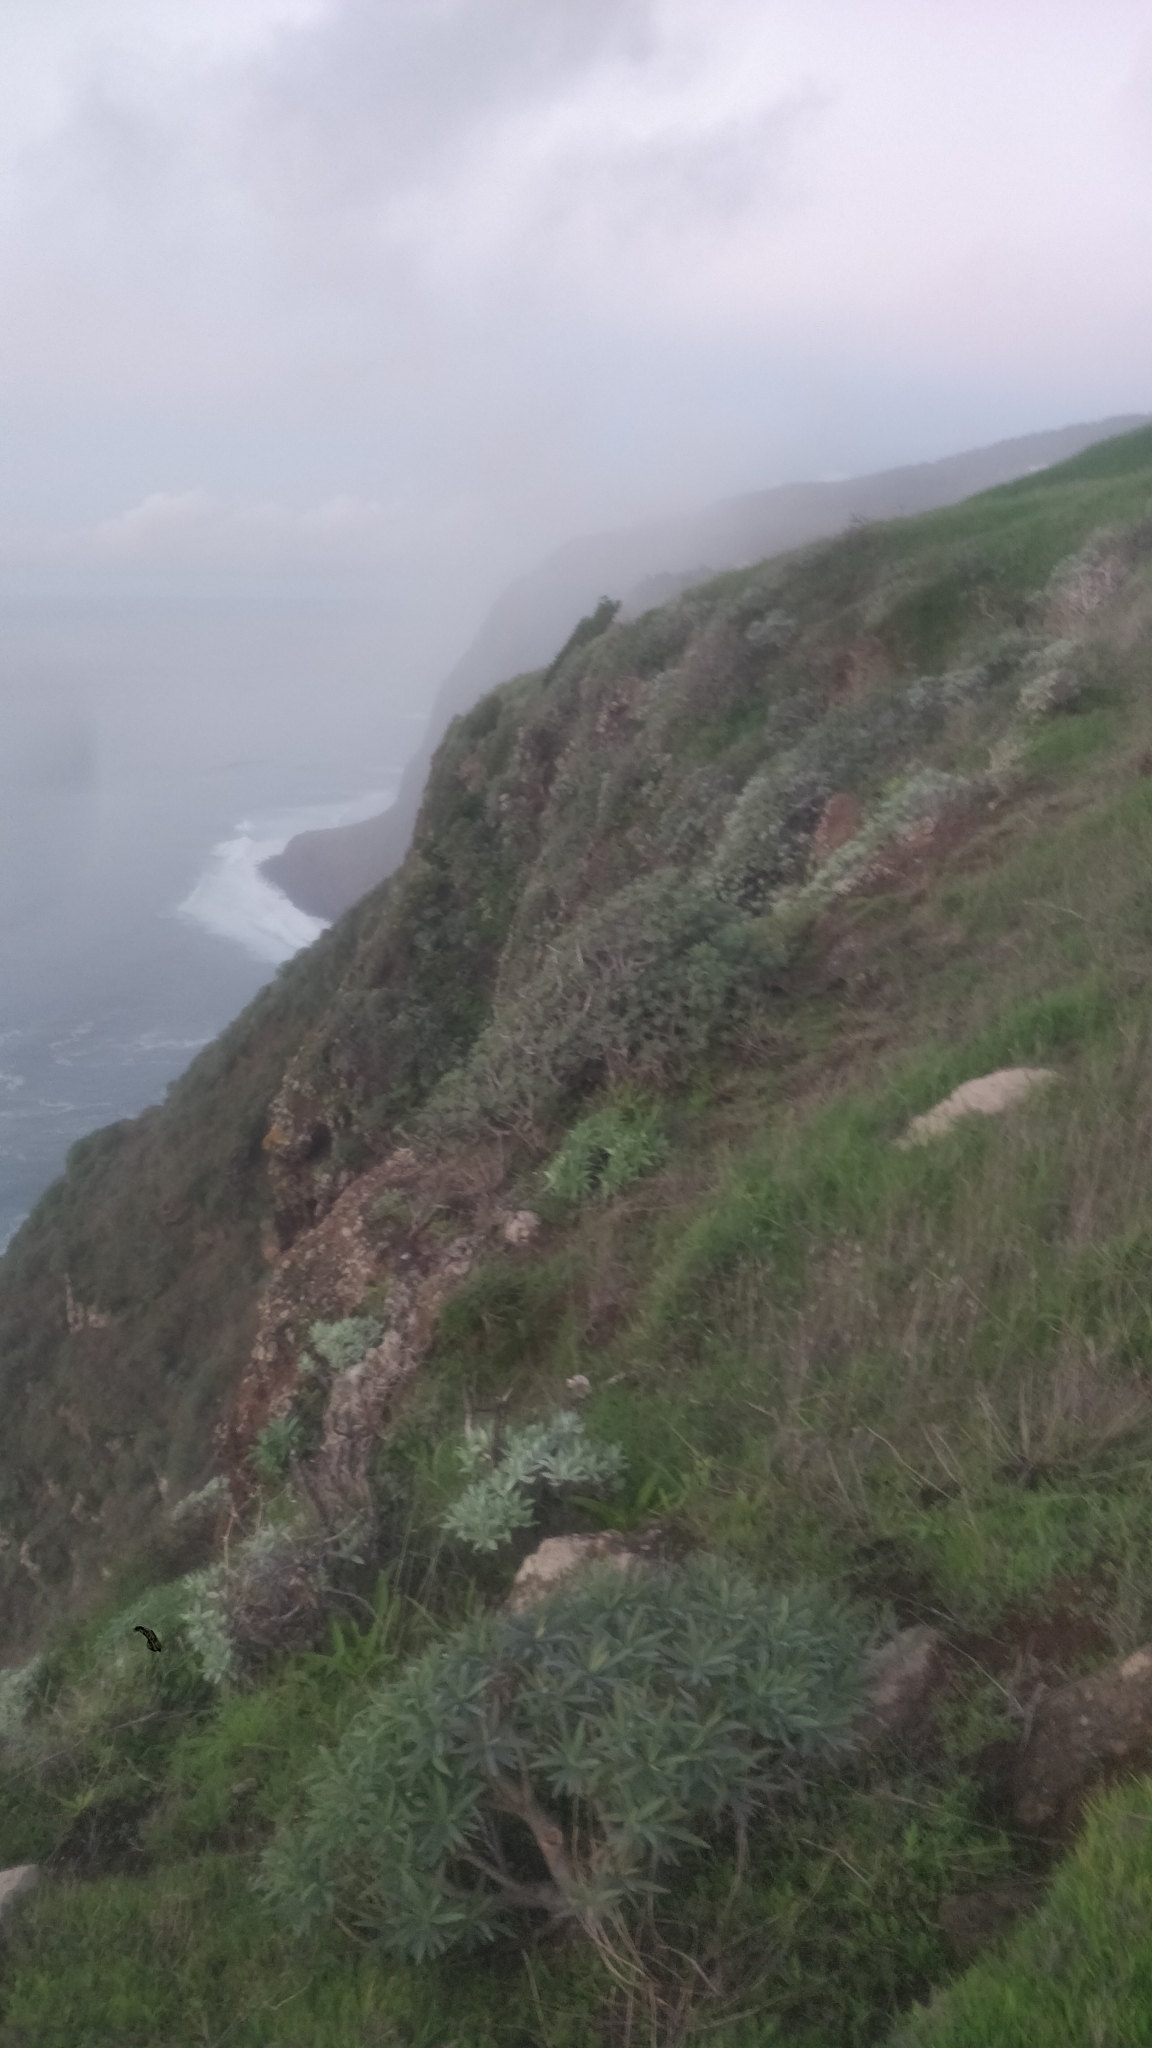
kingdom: Plantae
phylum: Tracheophyta
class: Magnoliopsida
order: Malpighiales
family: Euphorbiaceae
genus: Euphorbia
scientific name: Euphorbia piscatoria
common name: Fish-stunning spurge
